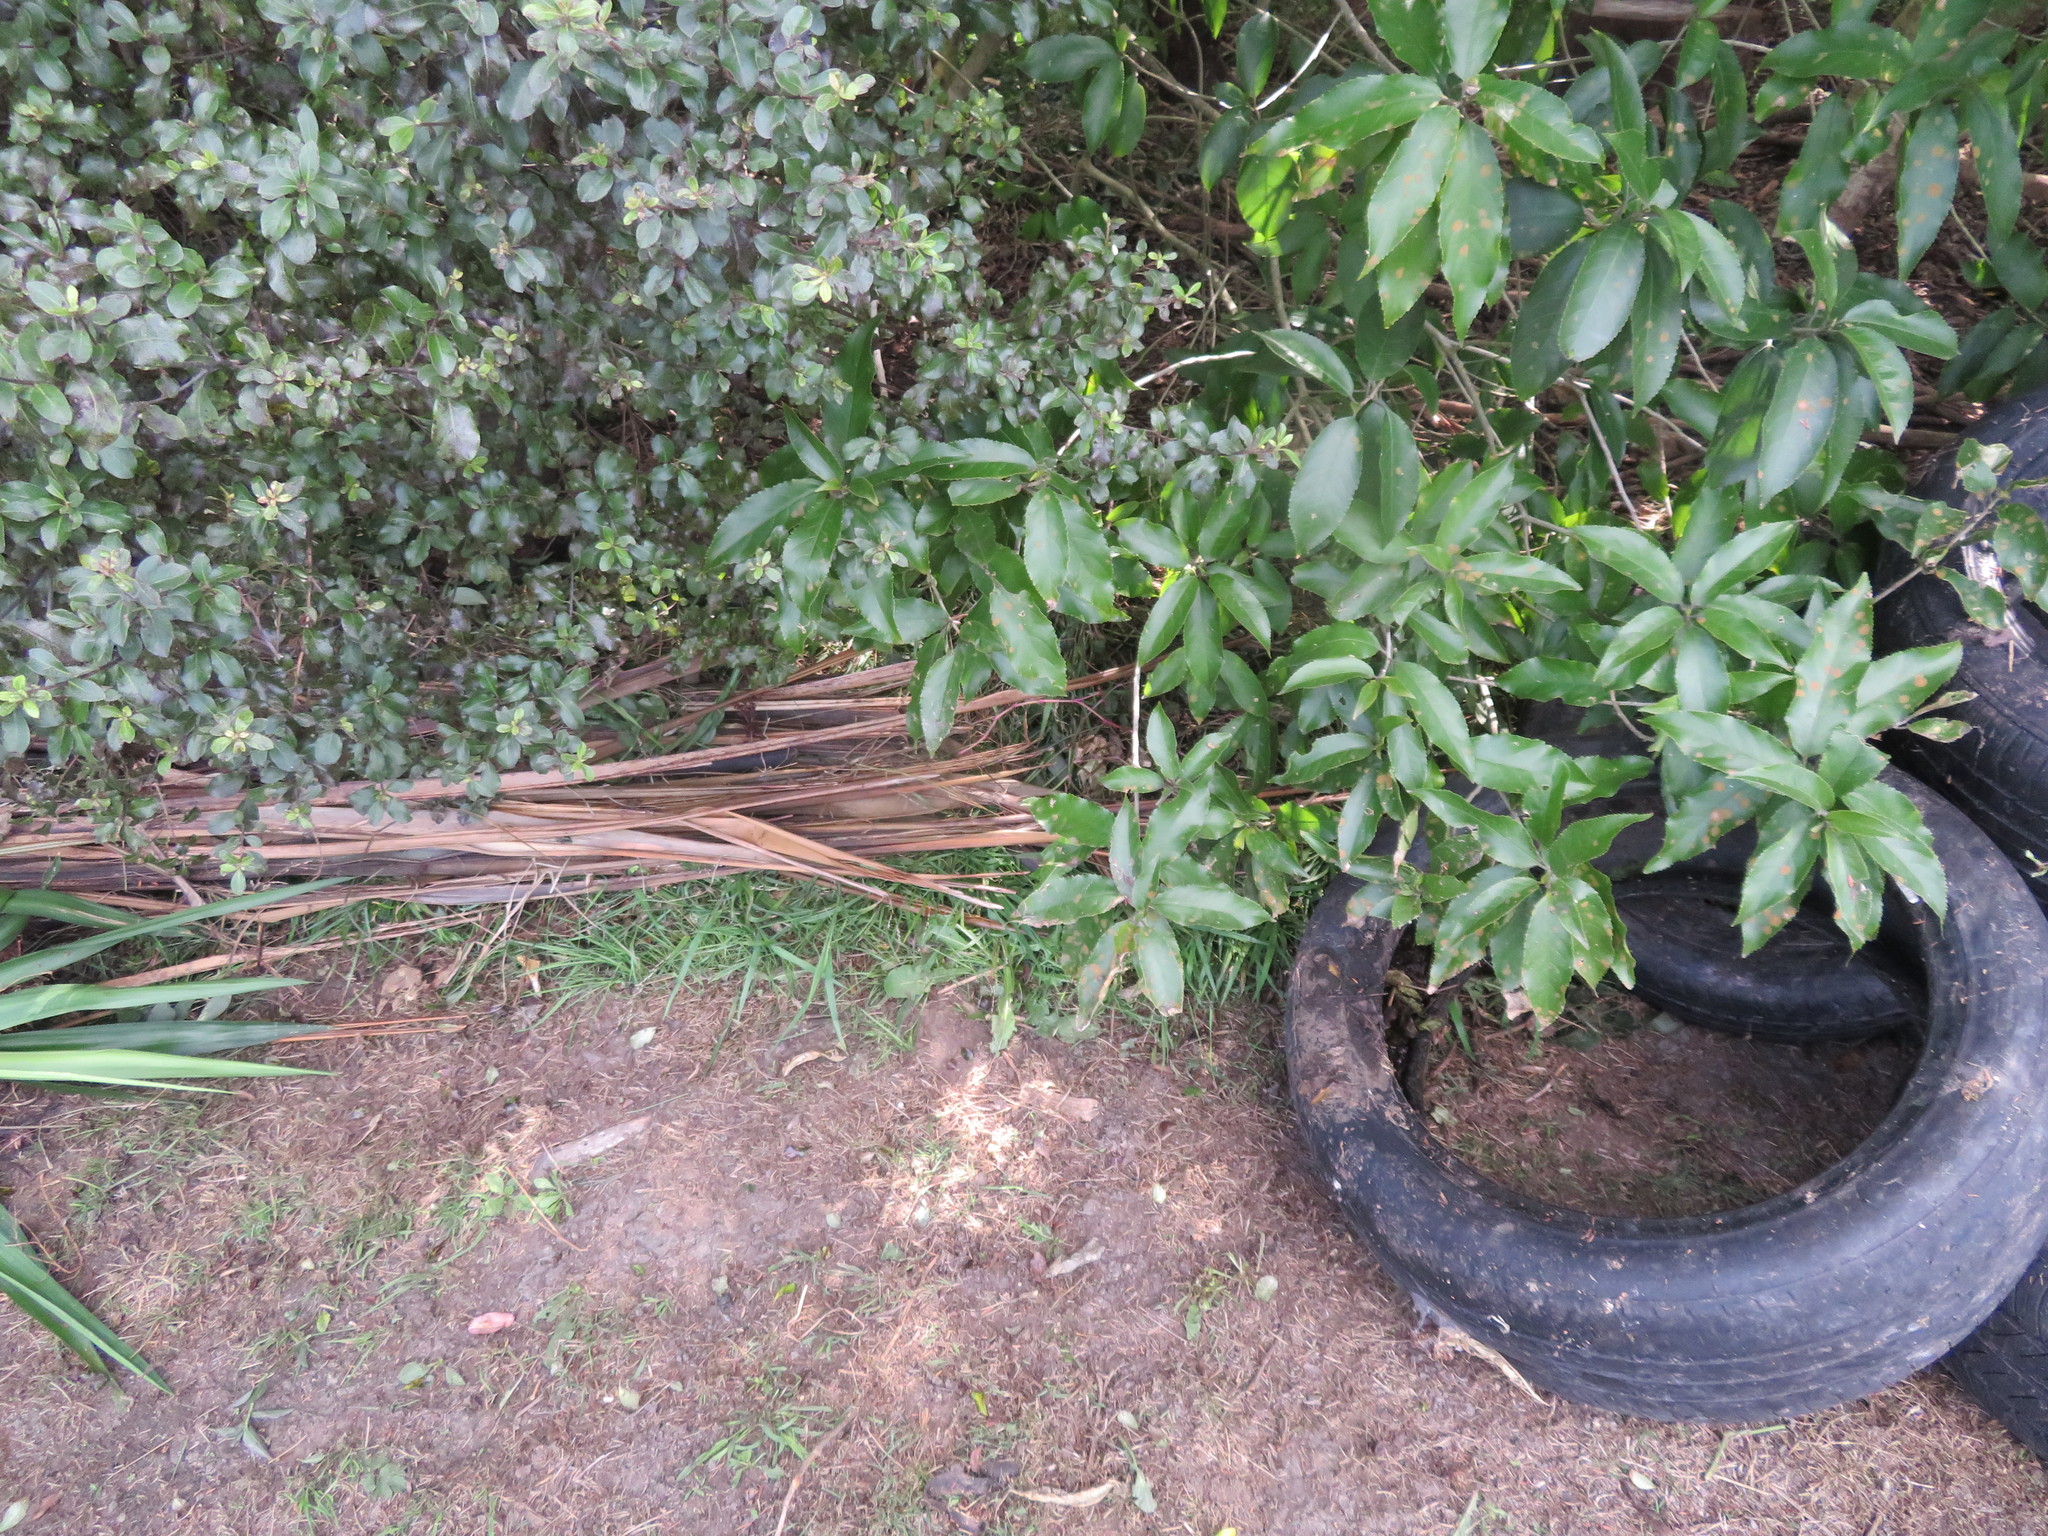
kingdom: Plantae
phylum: Tracheophyta
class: Magnoliopsida
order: Apiales
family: Pittosporaceae
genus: Pittosporum
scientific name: Pittosporum tenuifolium
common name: Kohuhu
